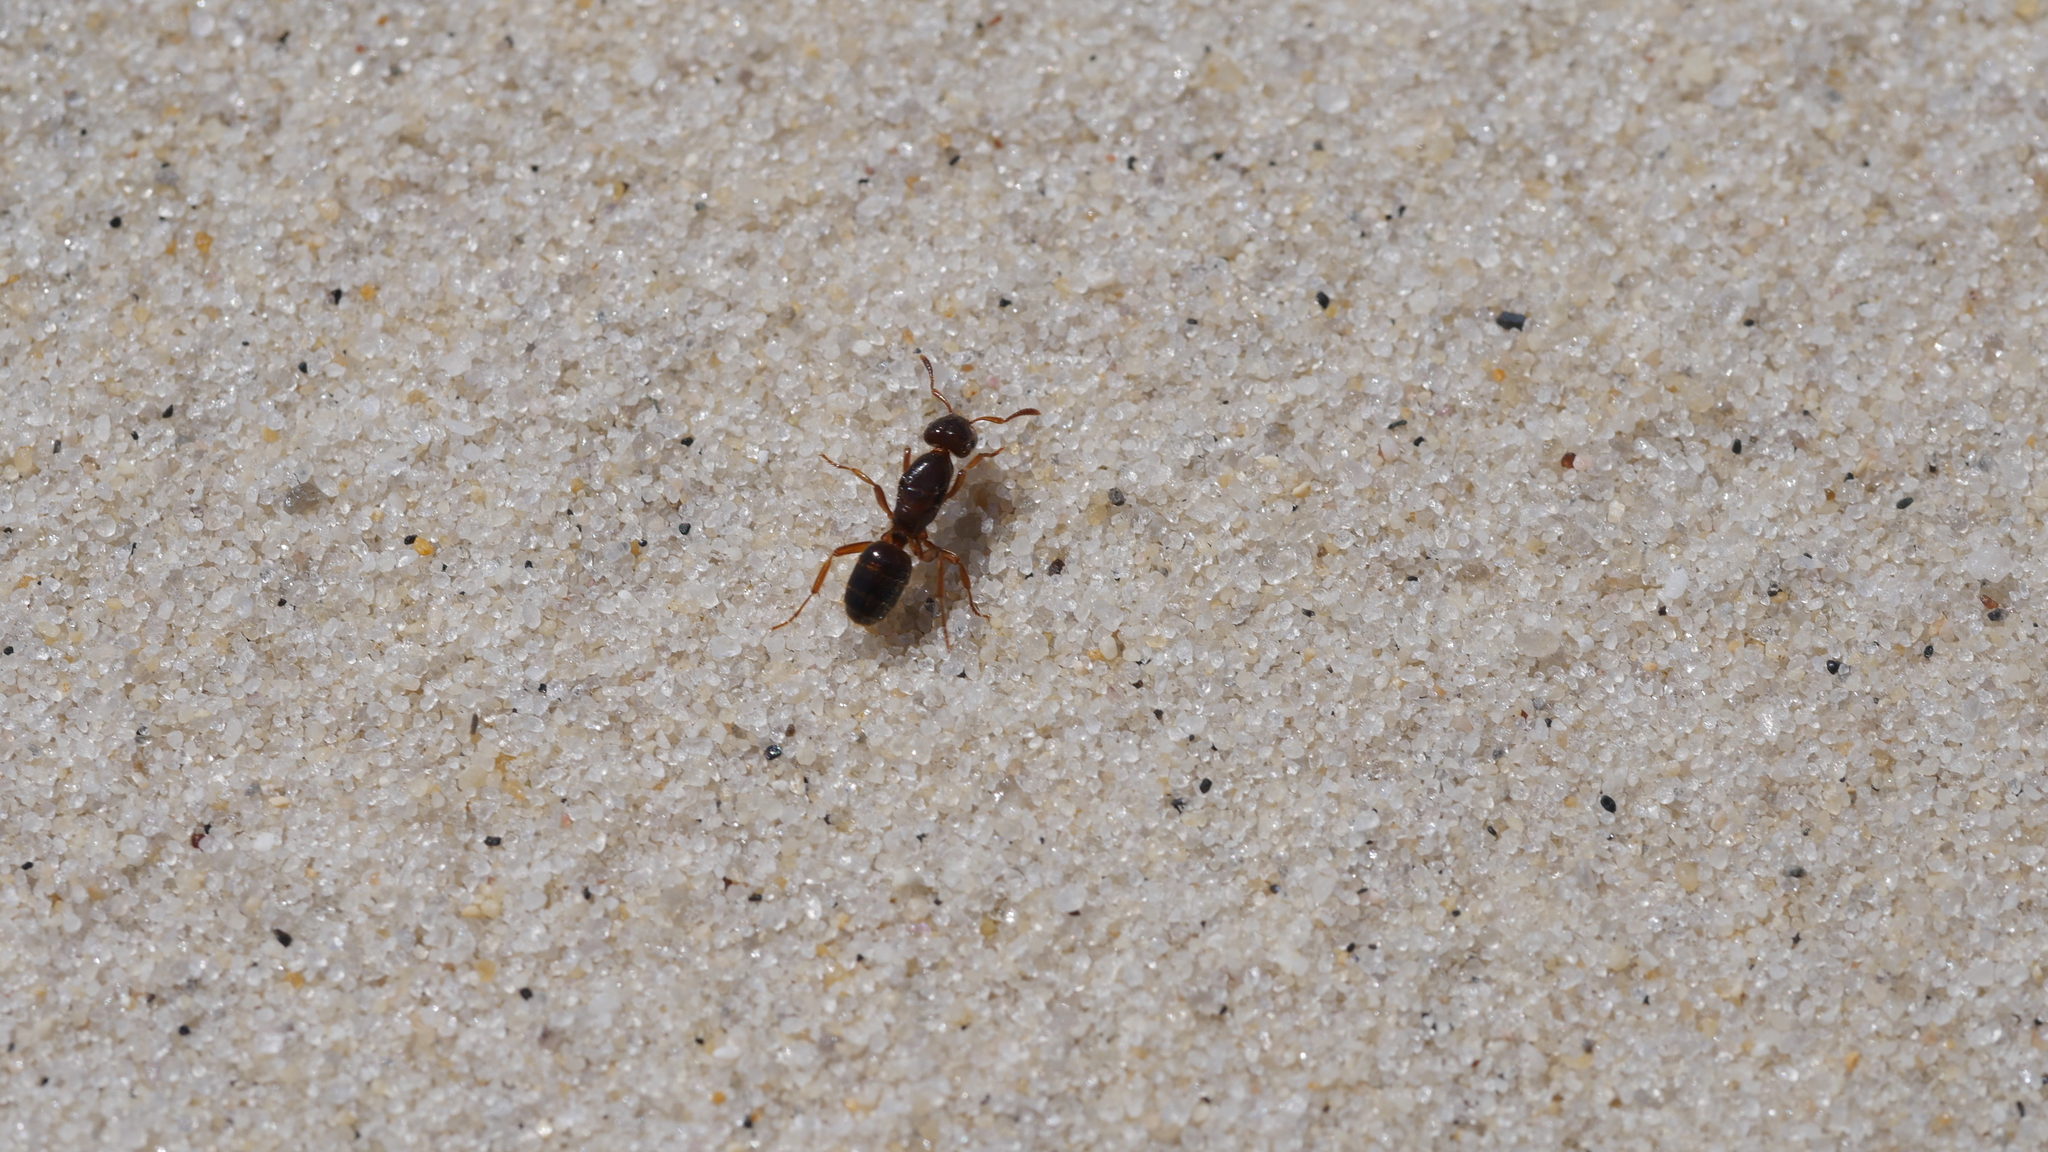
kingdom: Animalia
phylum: Arthropoda
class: Insecta
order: Hymenoptera
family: Formicidae
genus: Lasius
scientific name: Lasius claviger
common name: Common citronella ant
